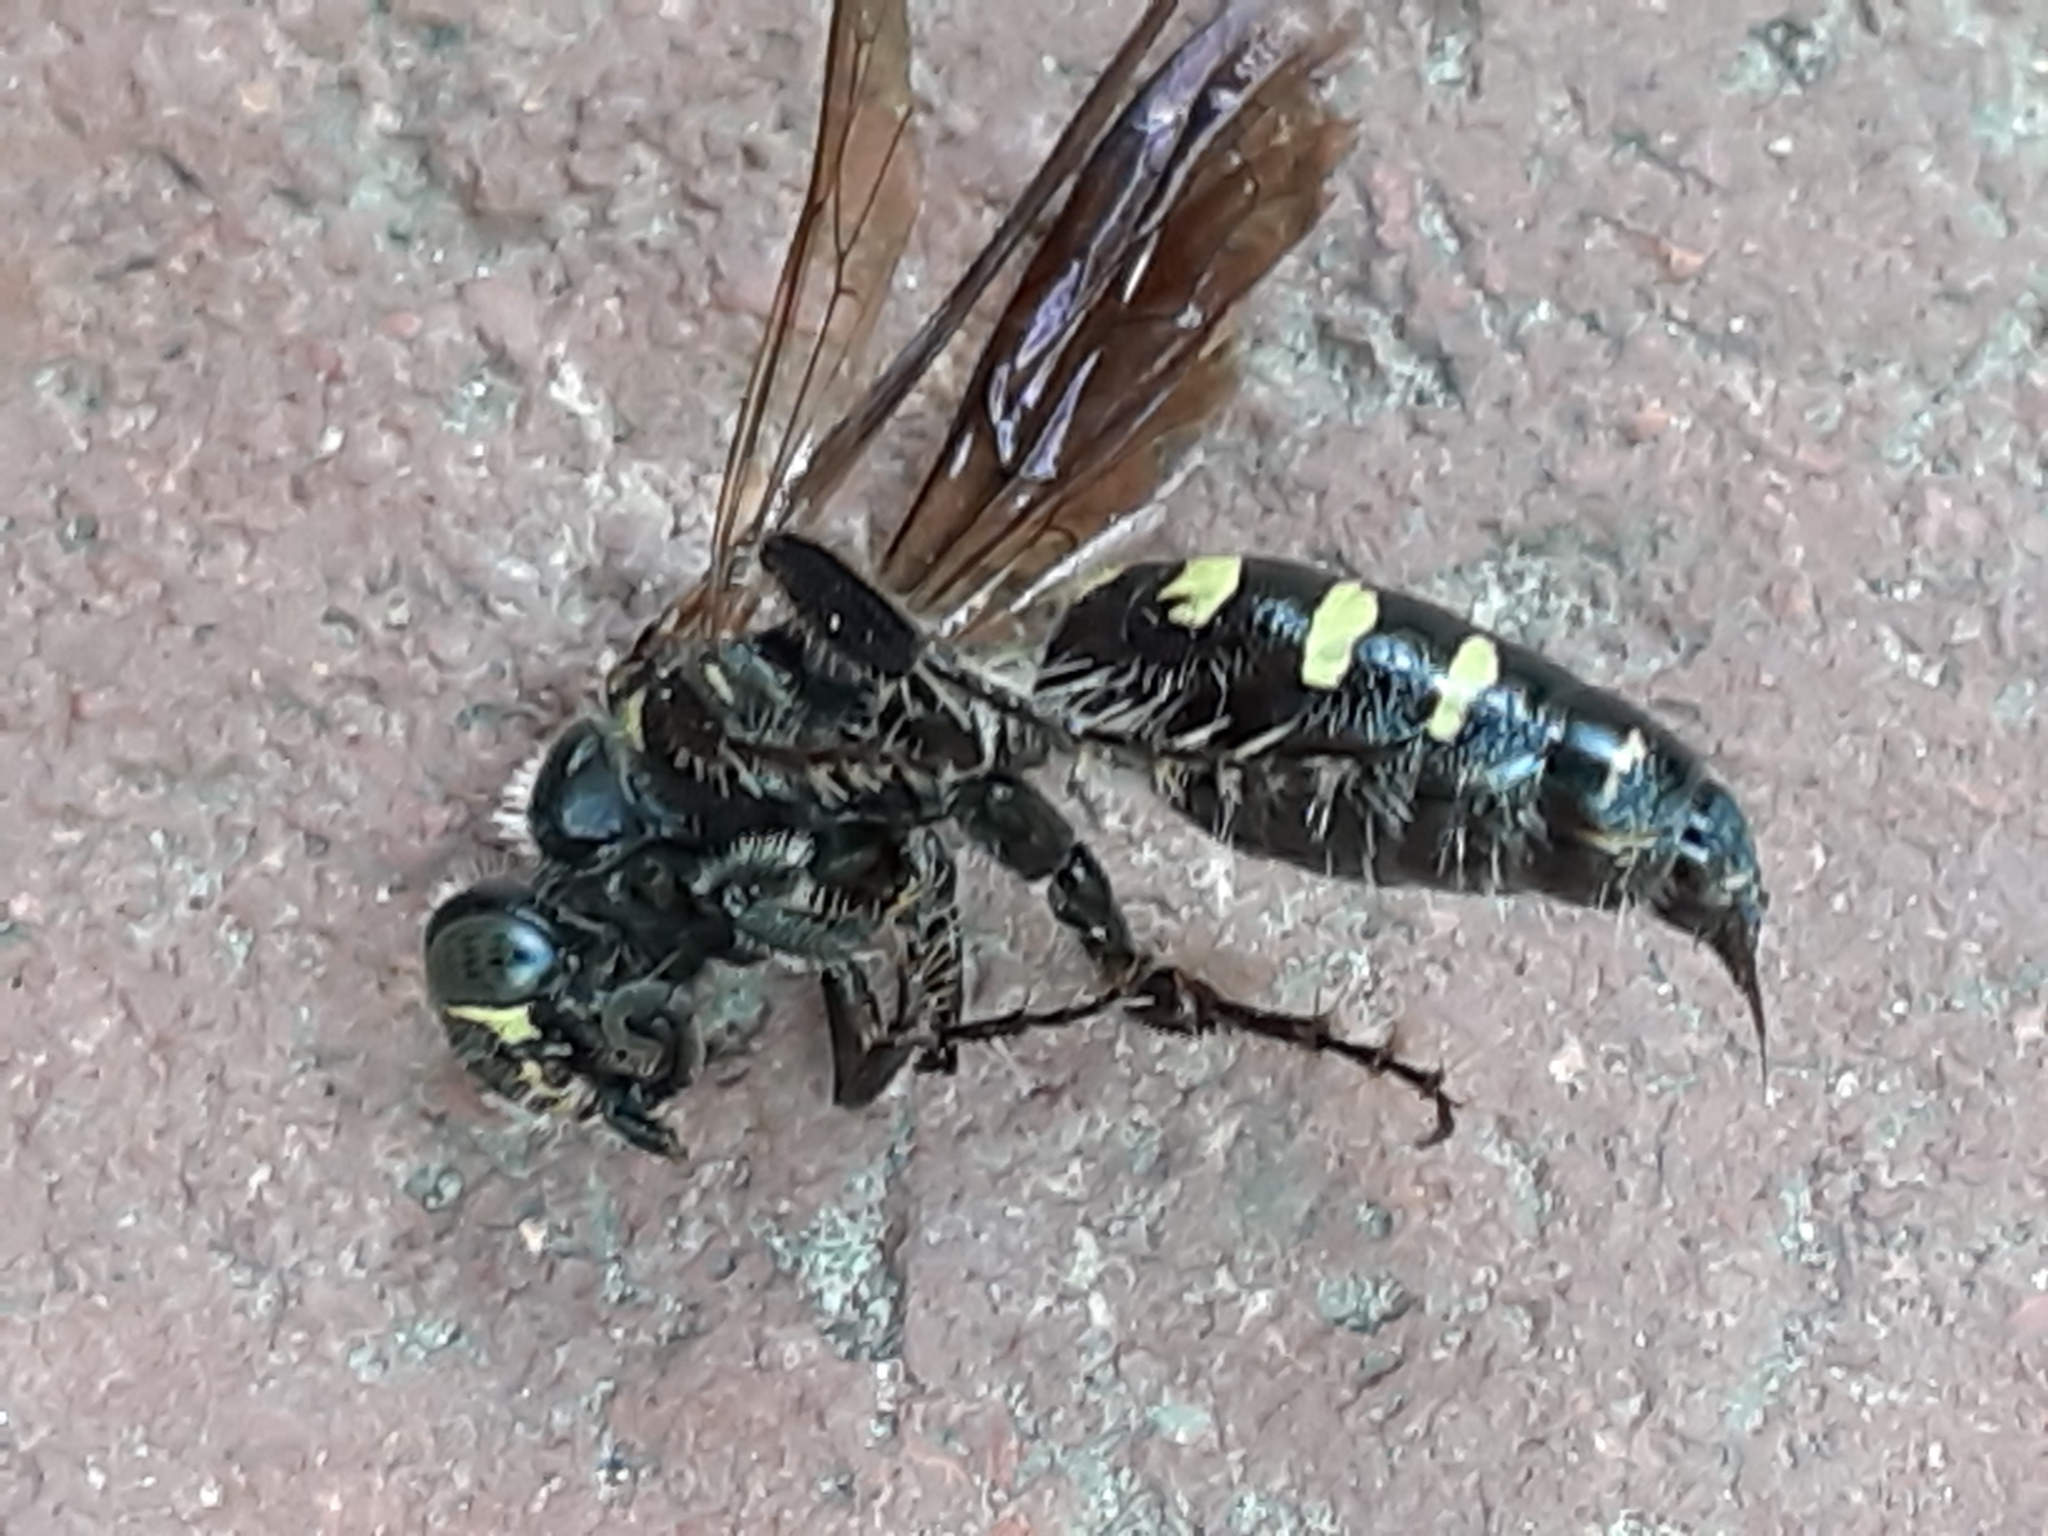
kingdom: Animalia
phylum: Arthropoda
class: Insecta
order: Hymenoptera
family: Tiphiidae
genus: Myzinum
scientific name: Myzinum obscurum
